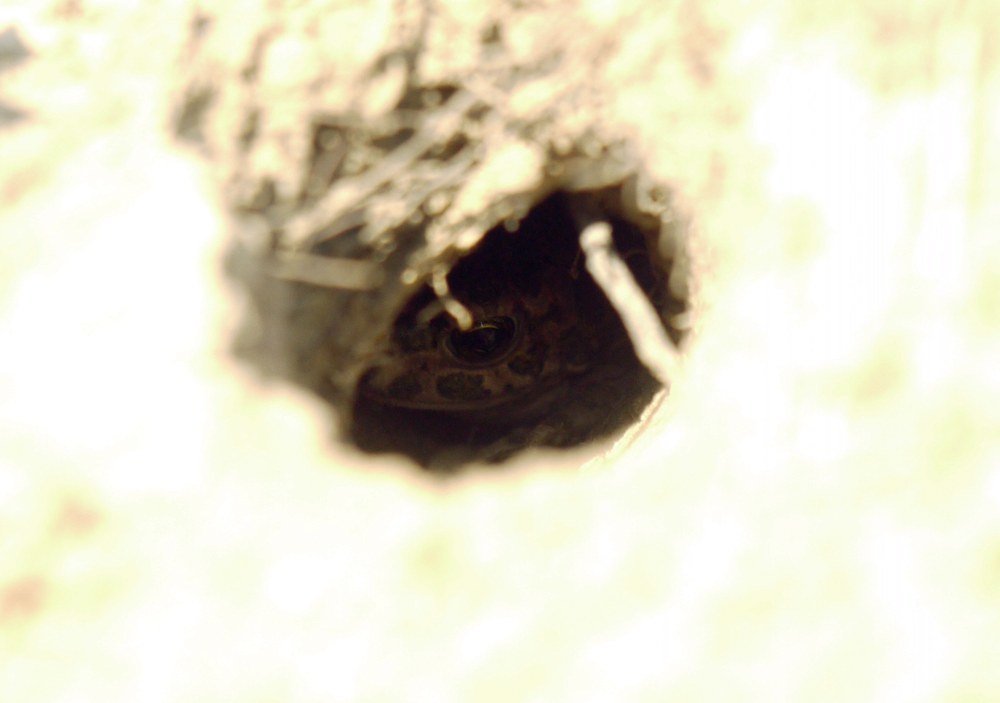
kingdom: Animalia
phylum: Chordata
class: Amphibia
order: Anura
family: Bufonidae
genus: Bufotes
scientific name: Bufotes viridis
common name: European green toad
